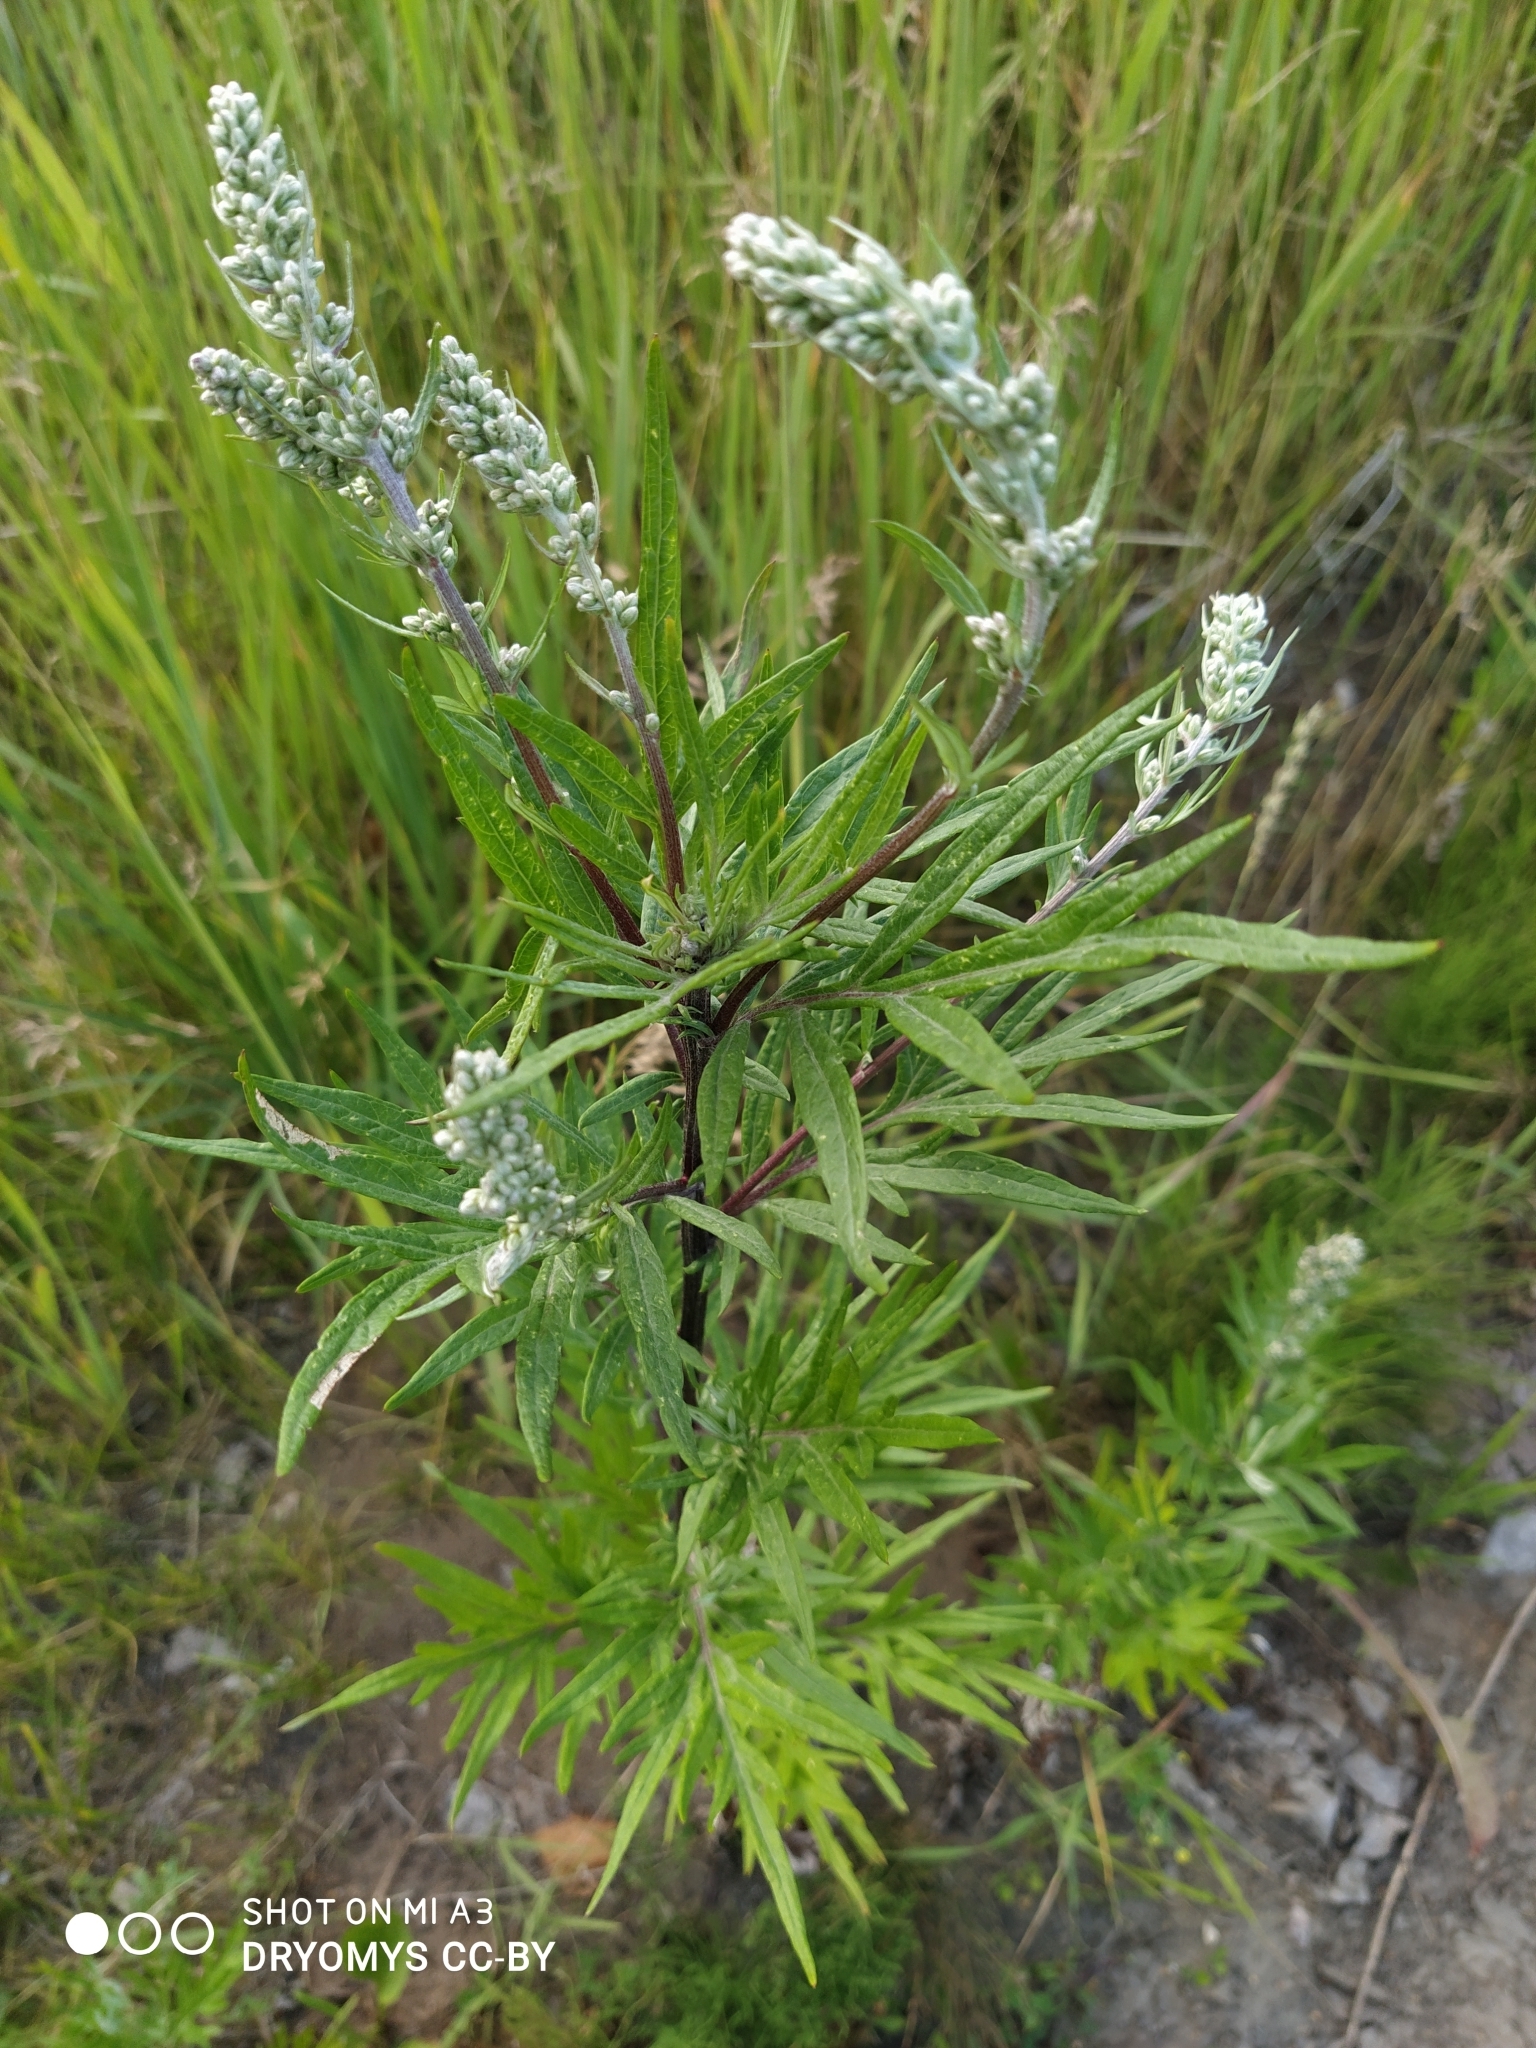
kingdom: Plantae
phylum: Tracheophyta
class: Magnoliopsida
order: Asterales
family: Asteraceae
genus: Artemisia
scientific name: Artemisia vulgaris
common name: Mugwort
